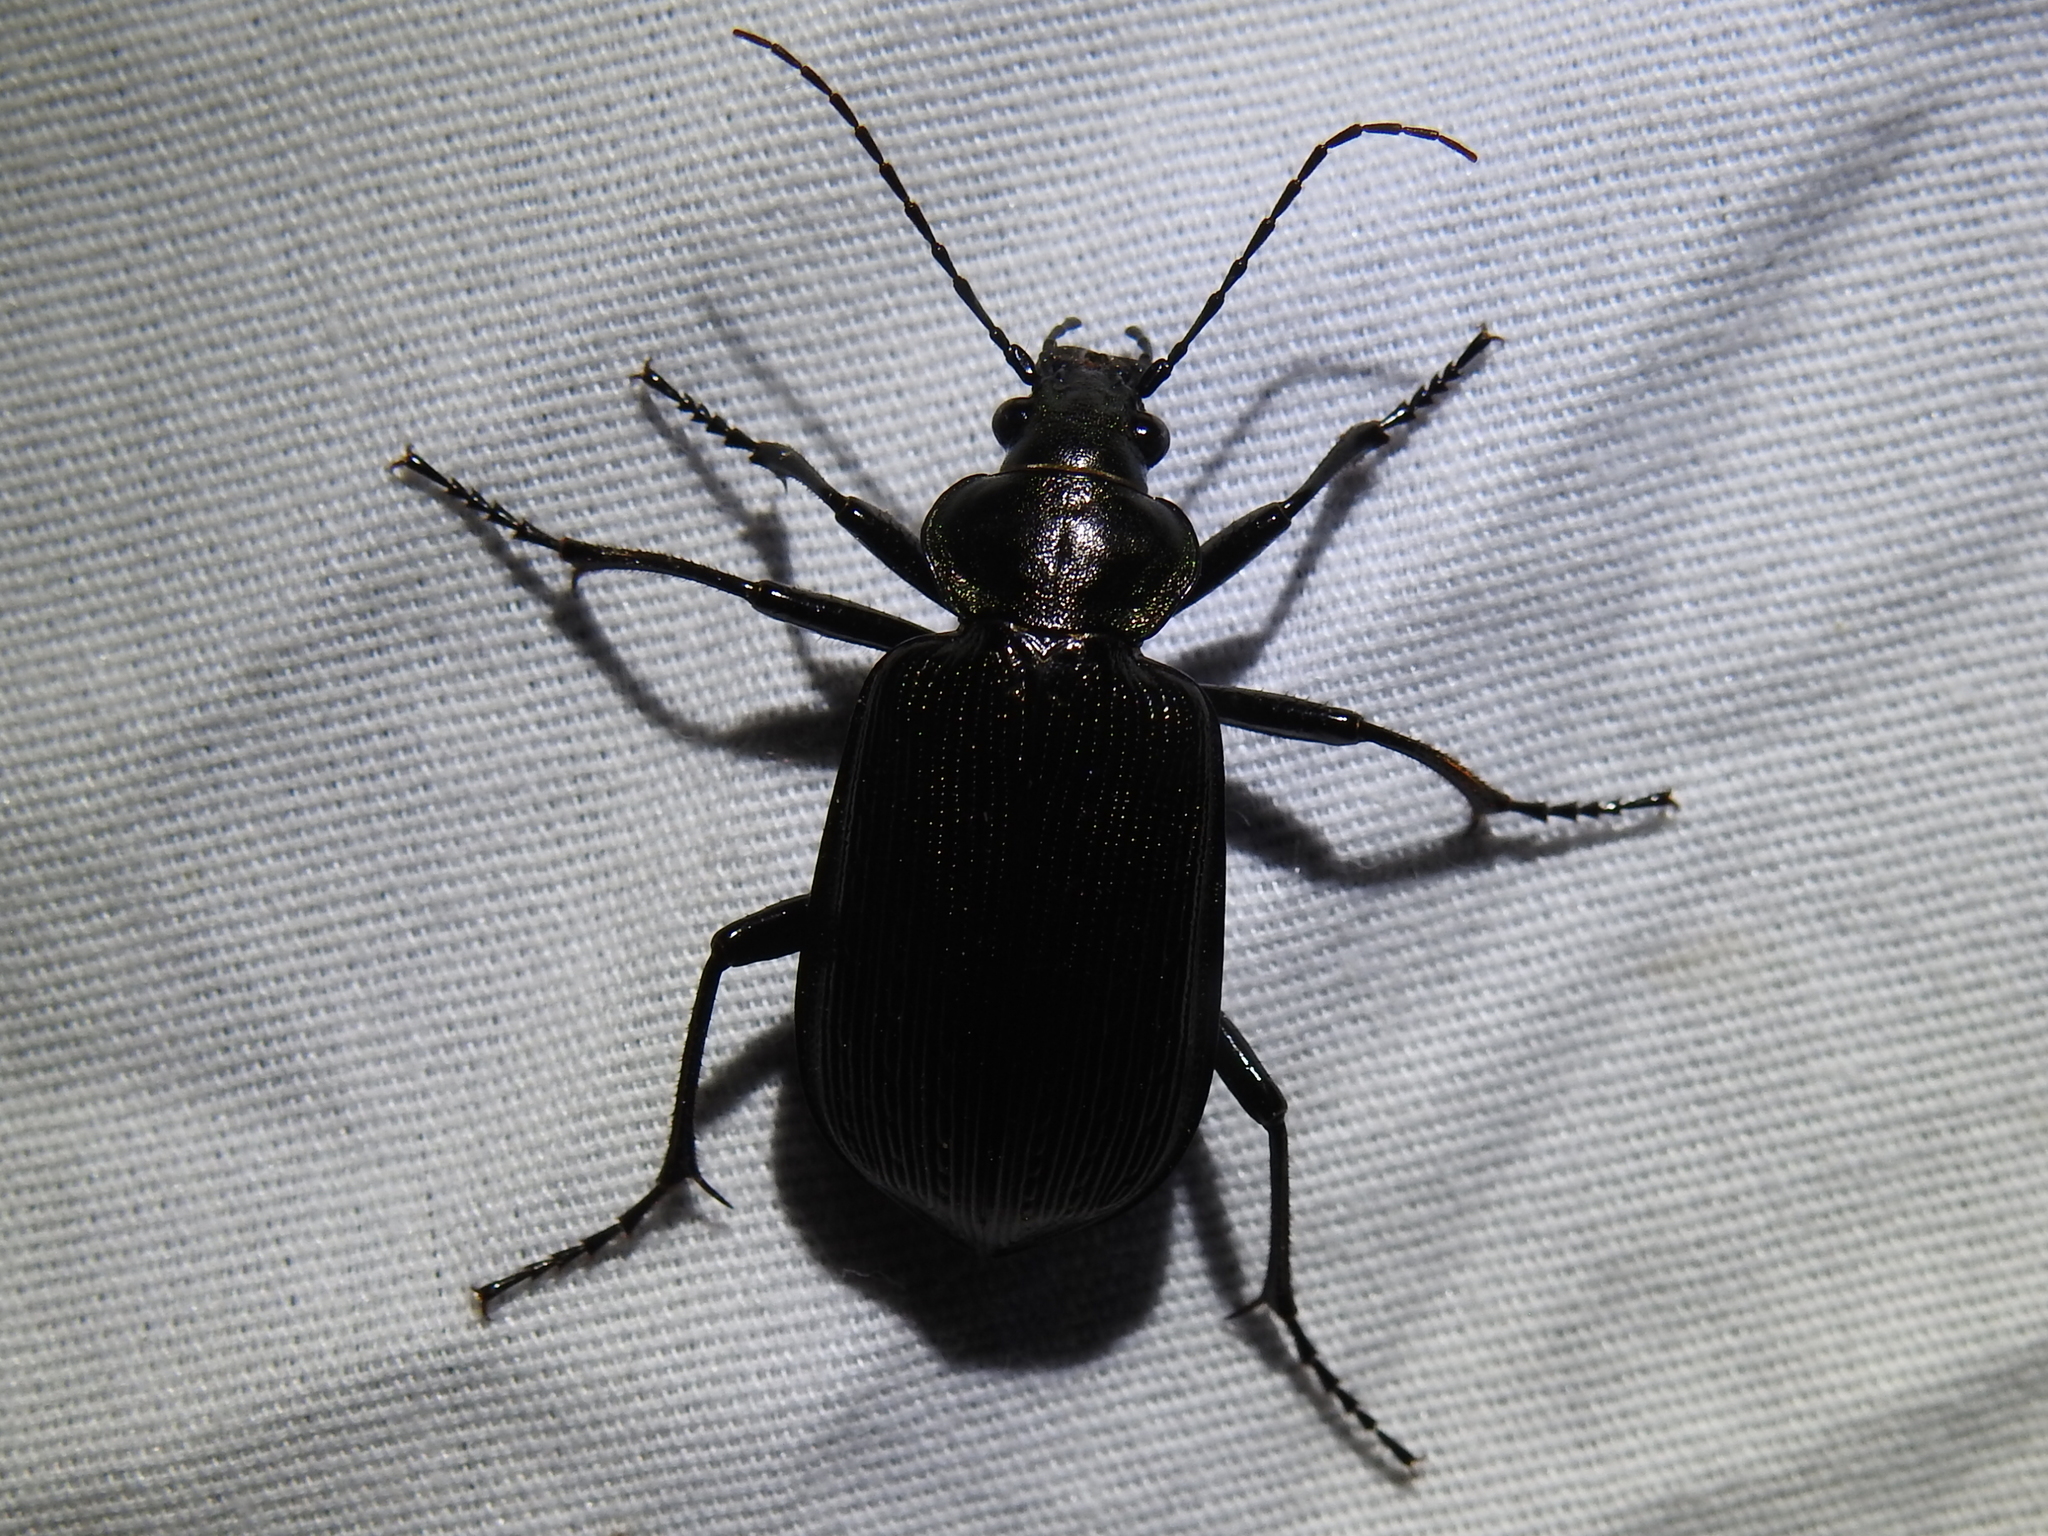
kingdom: Animalia
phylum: Arthropoda
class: Insecta
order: Coleoptera
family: Carabidae
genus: Calosoma
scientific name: Calosoma sayi
